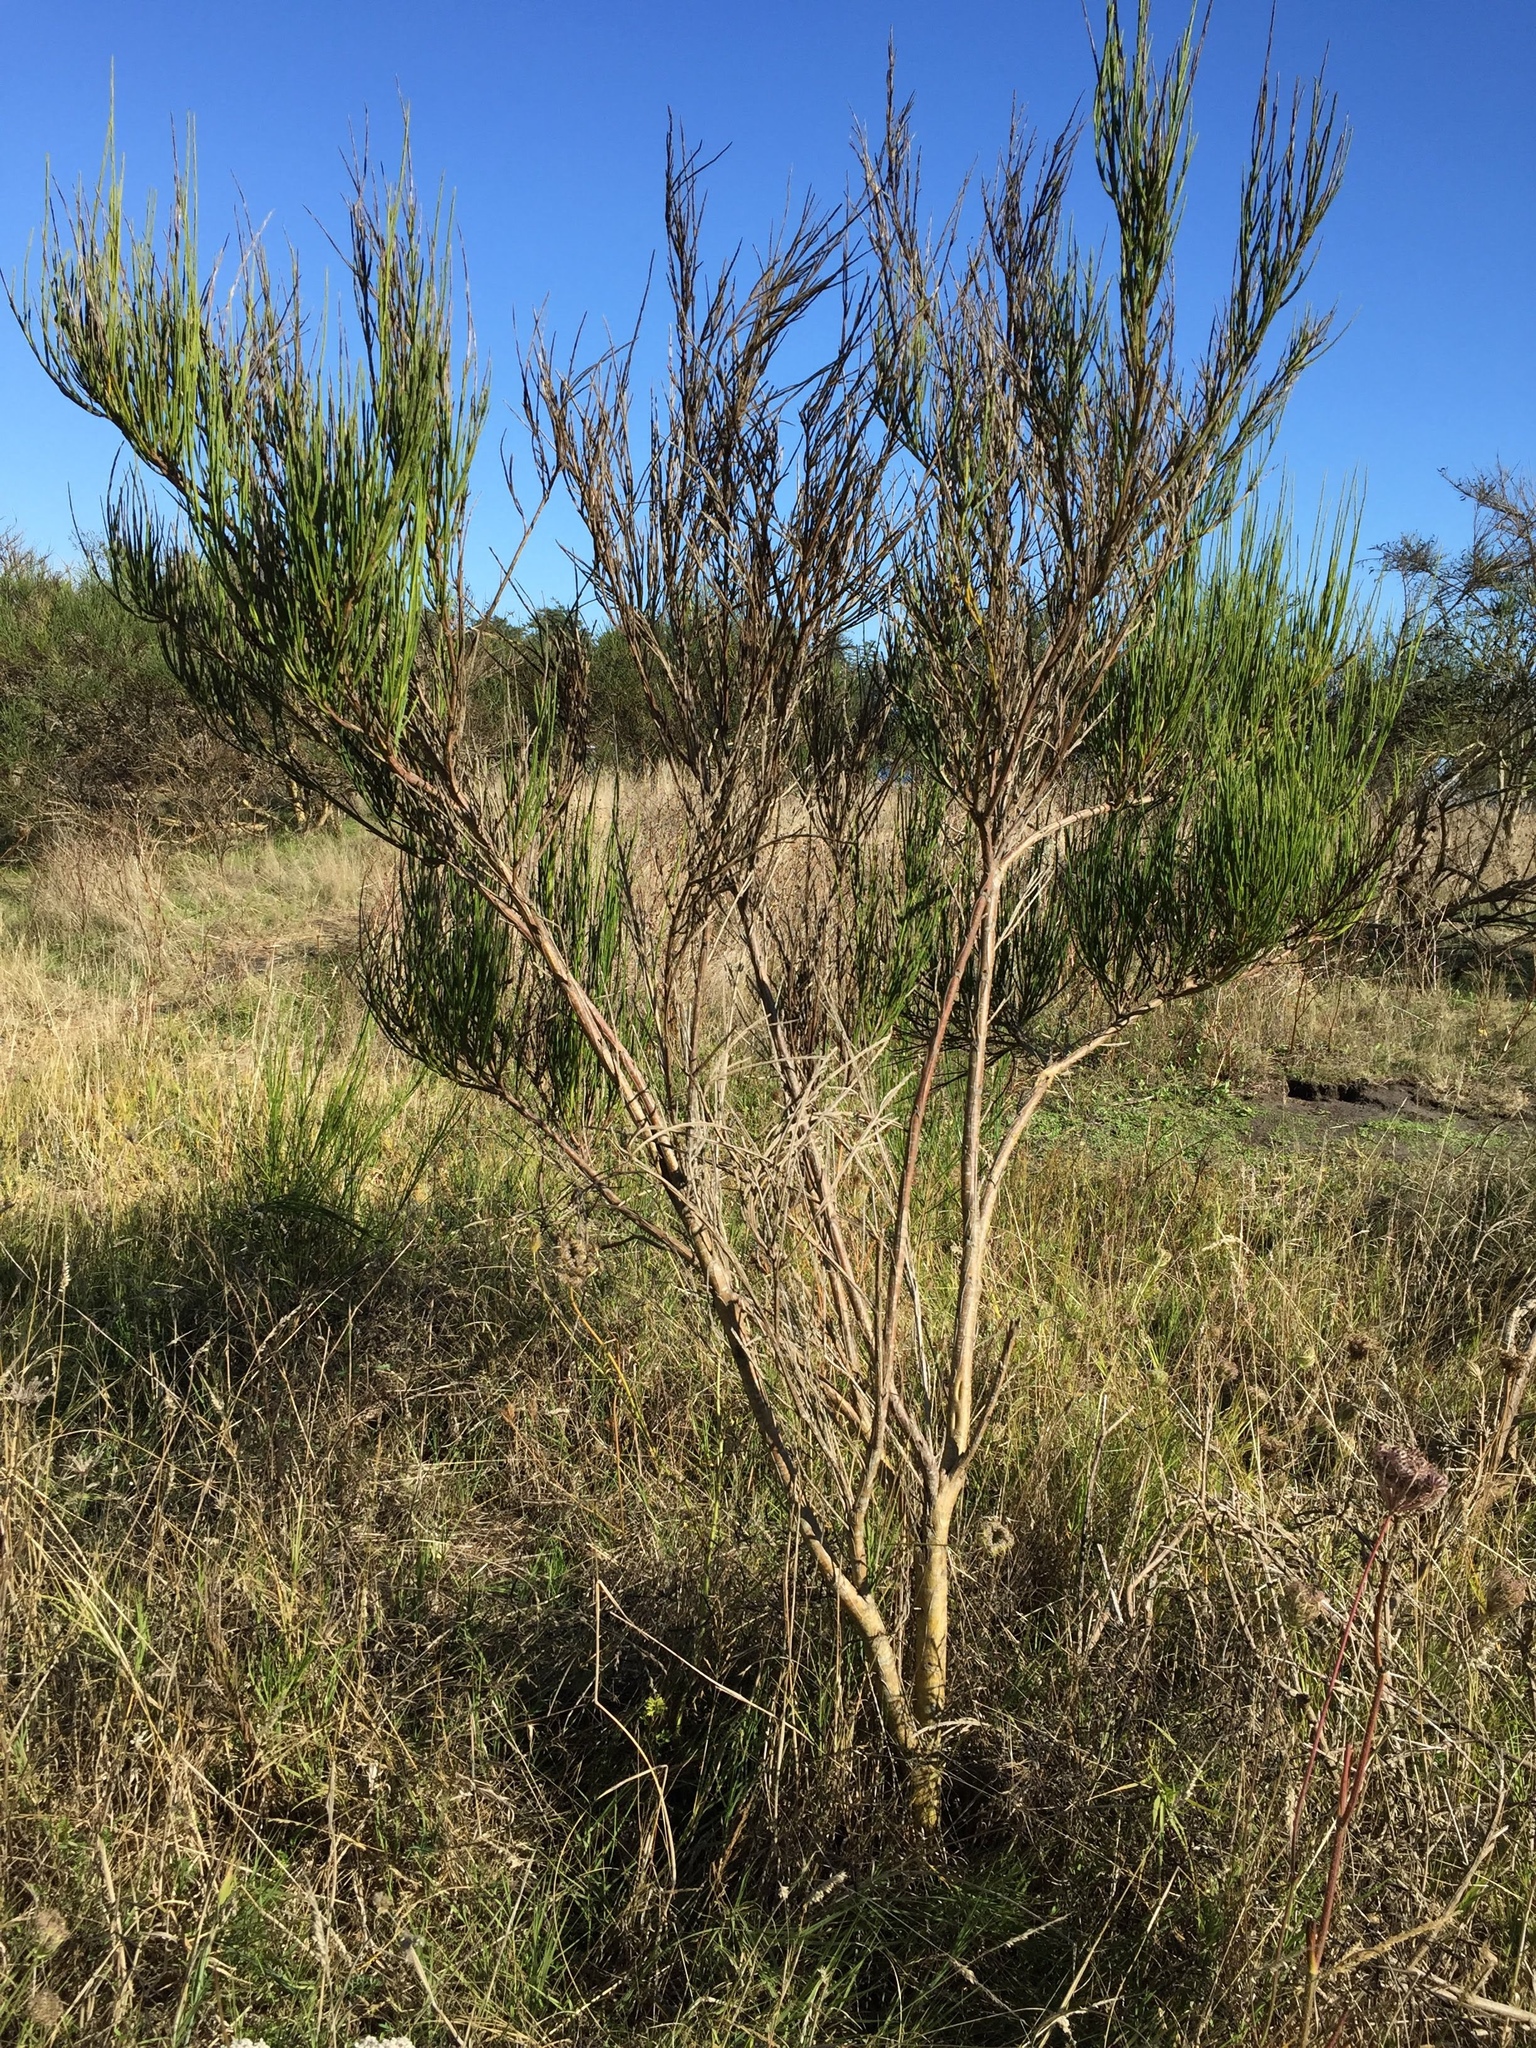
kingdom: Plantae
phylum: Tracheophyta
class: Magnoliopsida
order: Fabales
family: Fabaceae
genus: Cytisus
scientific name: Cytisus scoparius
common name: Scotch broom
